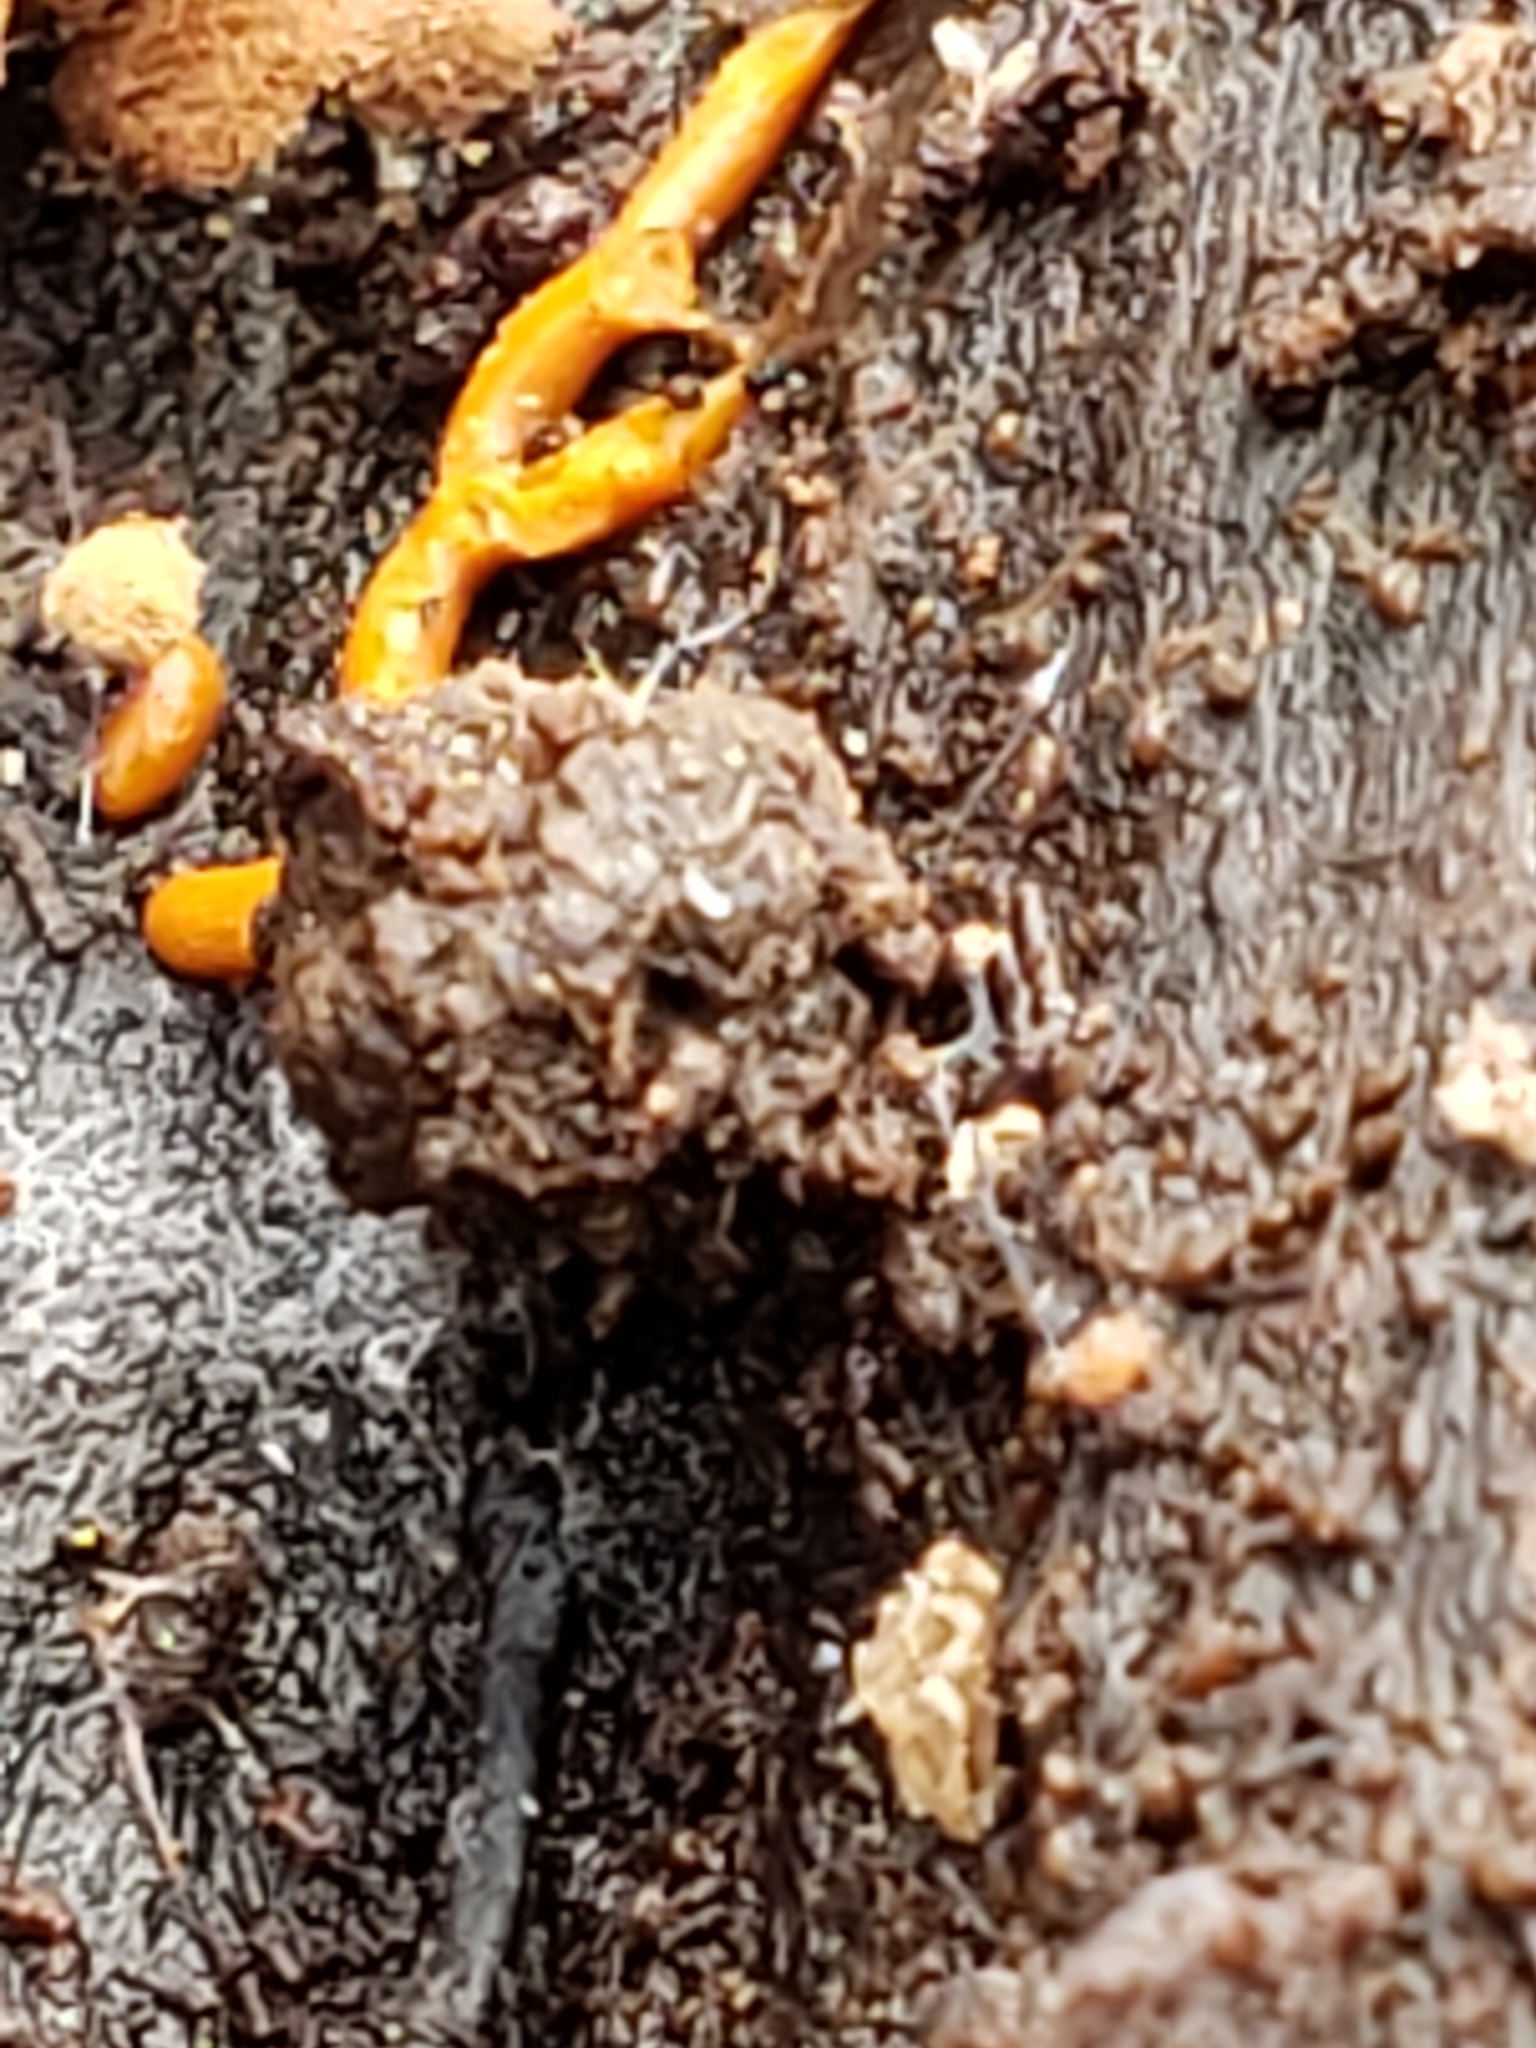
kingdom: Protozoa
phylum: Mycetozoa
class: Myxomycetes
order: Trichiales
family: Arcyriaceae
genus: Hemitrichia
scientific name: Hemitrichia serpula
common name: Pretzel slime mold
